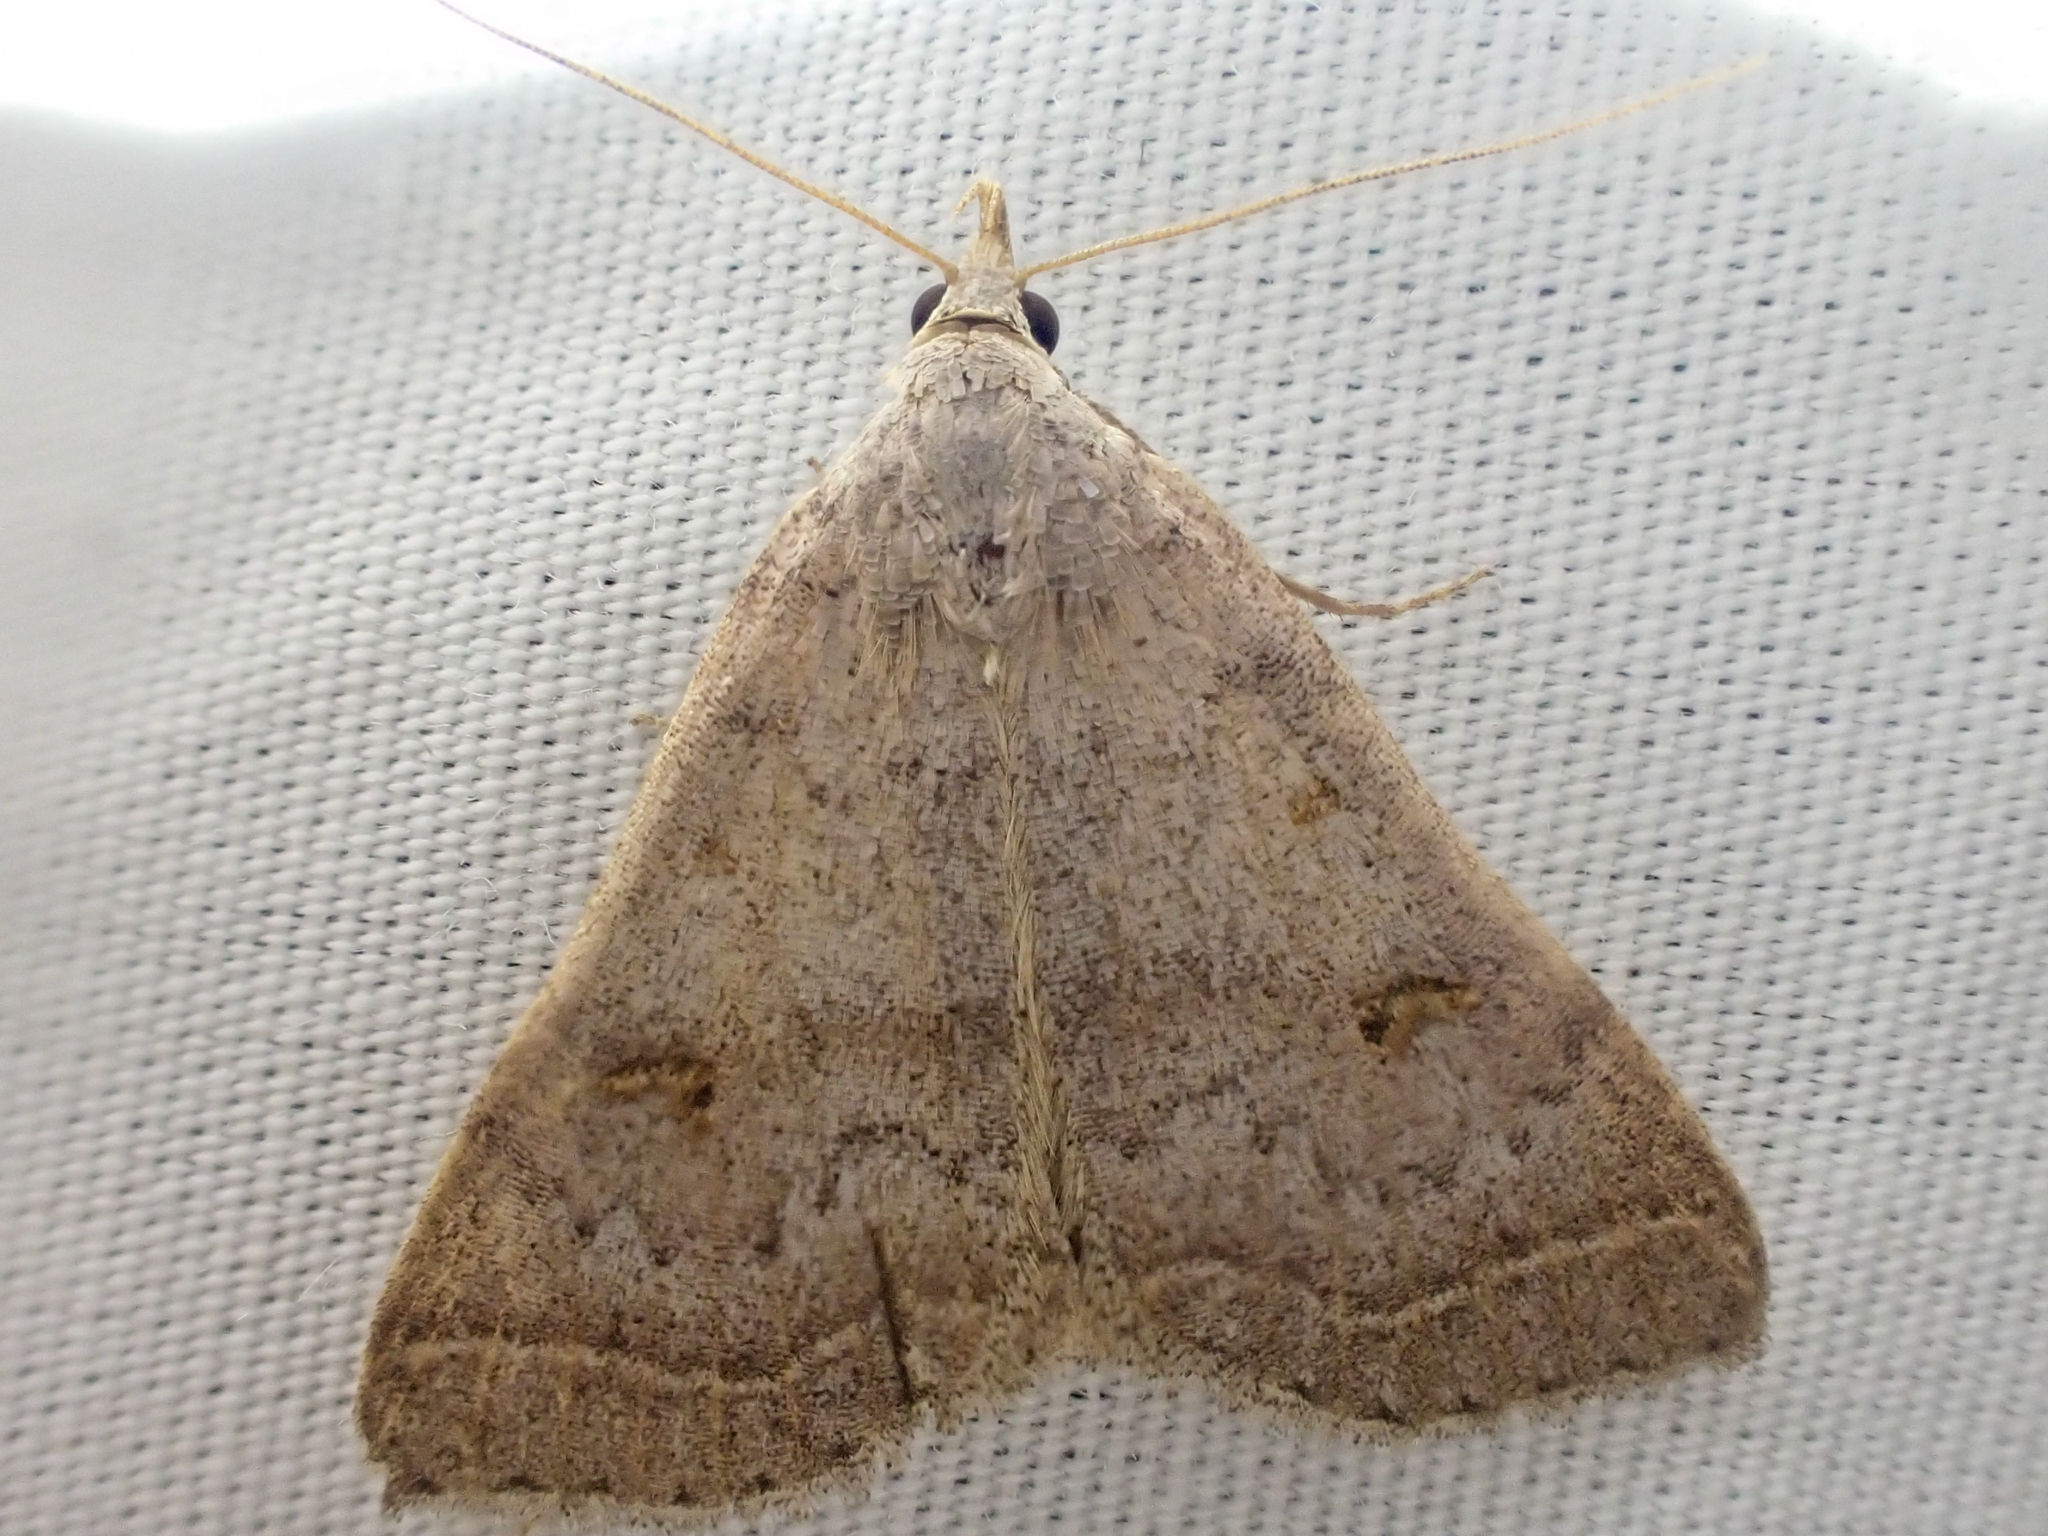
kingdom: Animalia
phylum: Arthropoda
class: Insecta
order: Lepidoptera
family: Erebidae
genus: Bleptina
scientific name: Bleptina caradrinalis
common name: Bent-winged owlet
